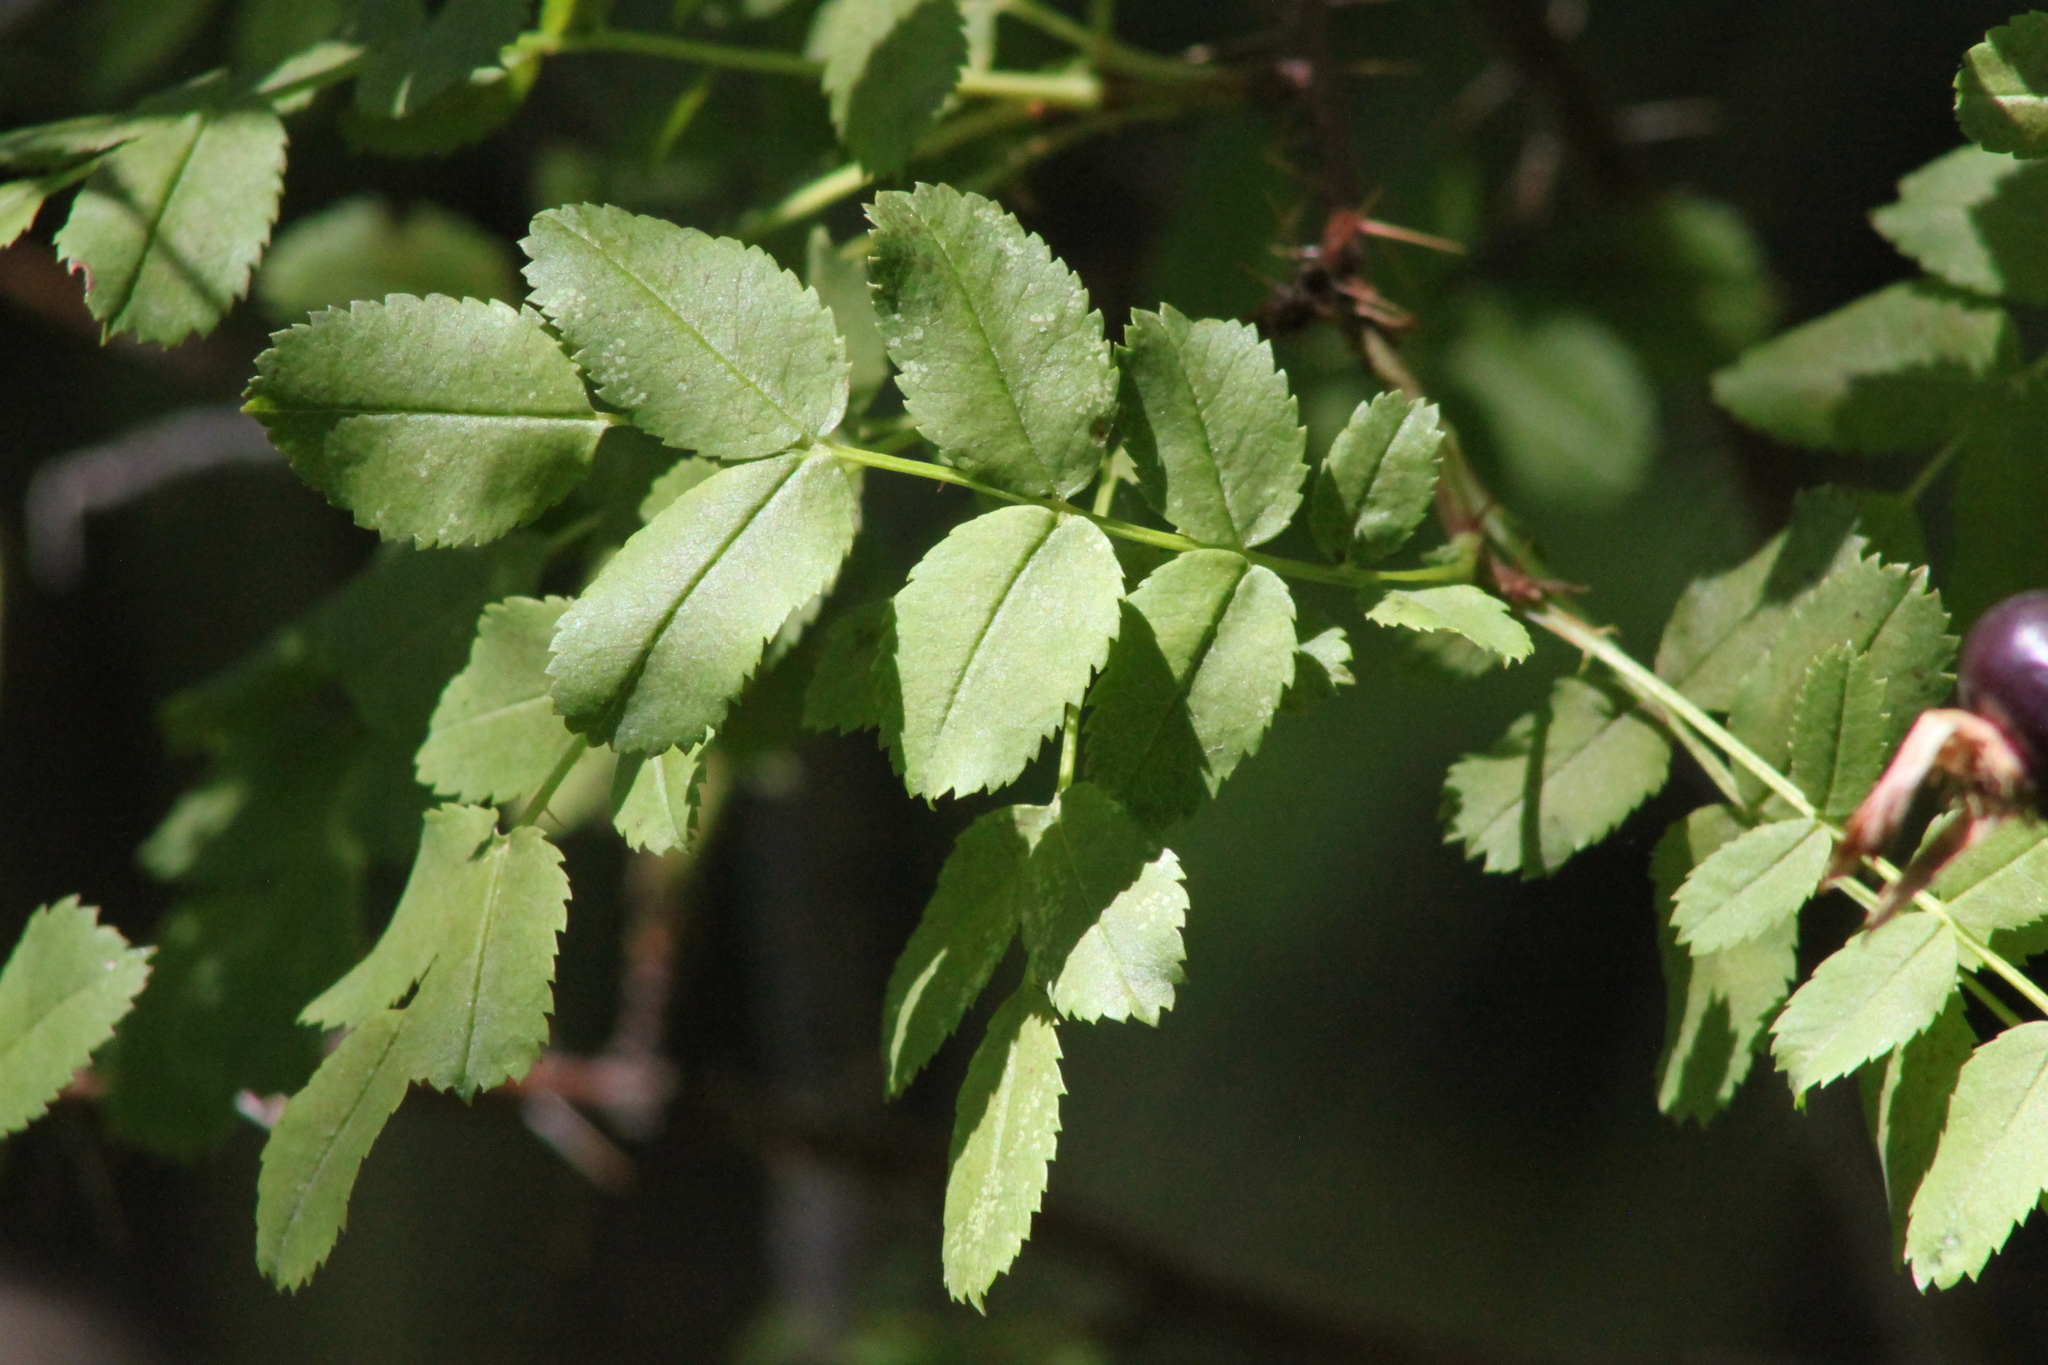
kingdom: Plantae
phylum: Tracheophyta
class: Magnoliopsida
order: Rosales
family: Rosaceae
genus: Rosa
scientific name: Rosa spinosissima
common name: Burnet rose
